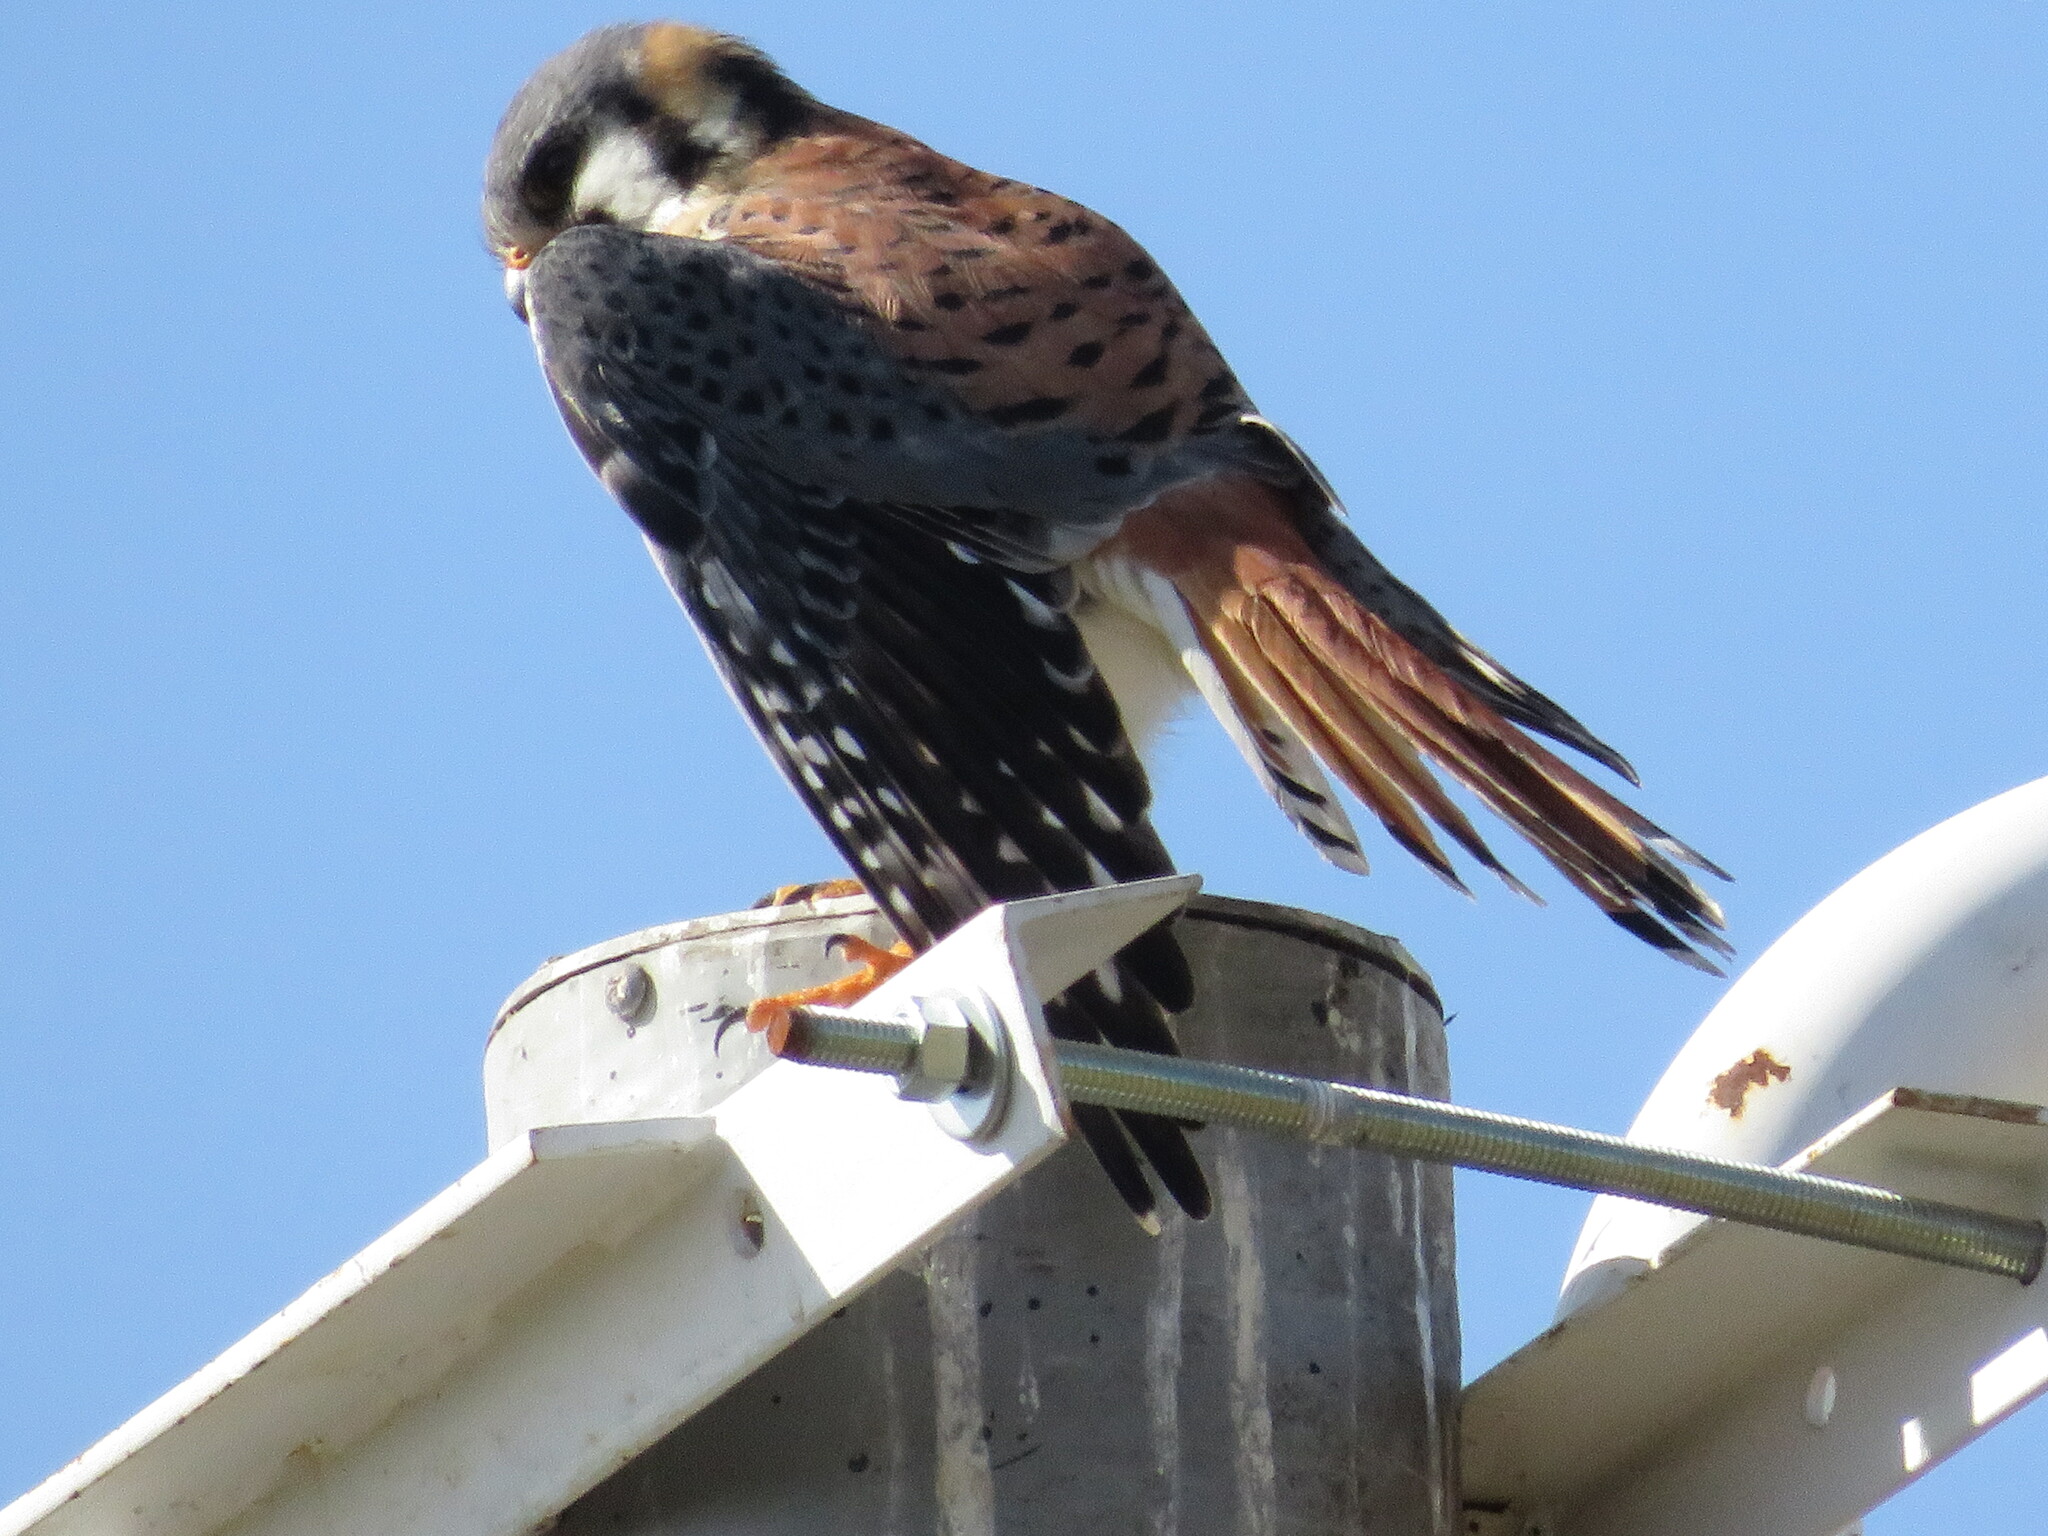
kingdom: Animalia
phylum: Chordata
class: Aves
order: Falconiformes
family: Falconidae
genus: Falco
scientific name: Falco sparverius
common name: American kestrel
